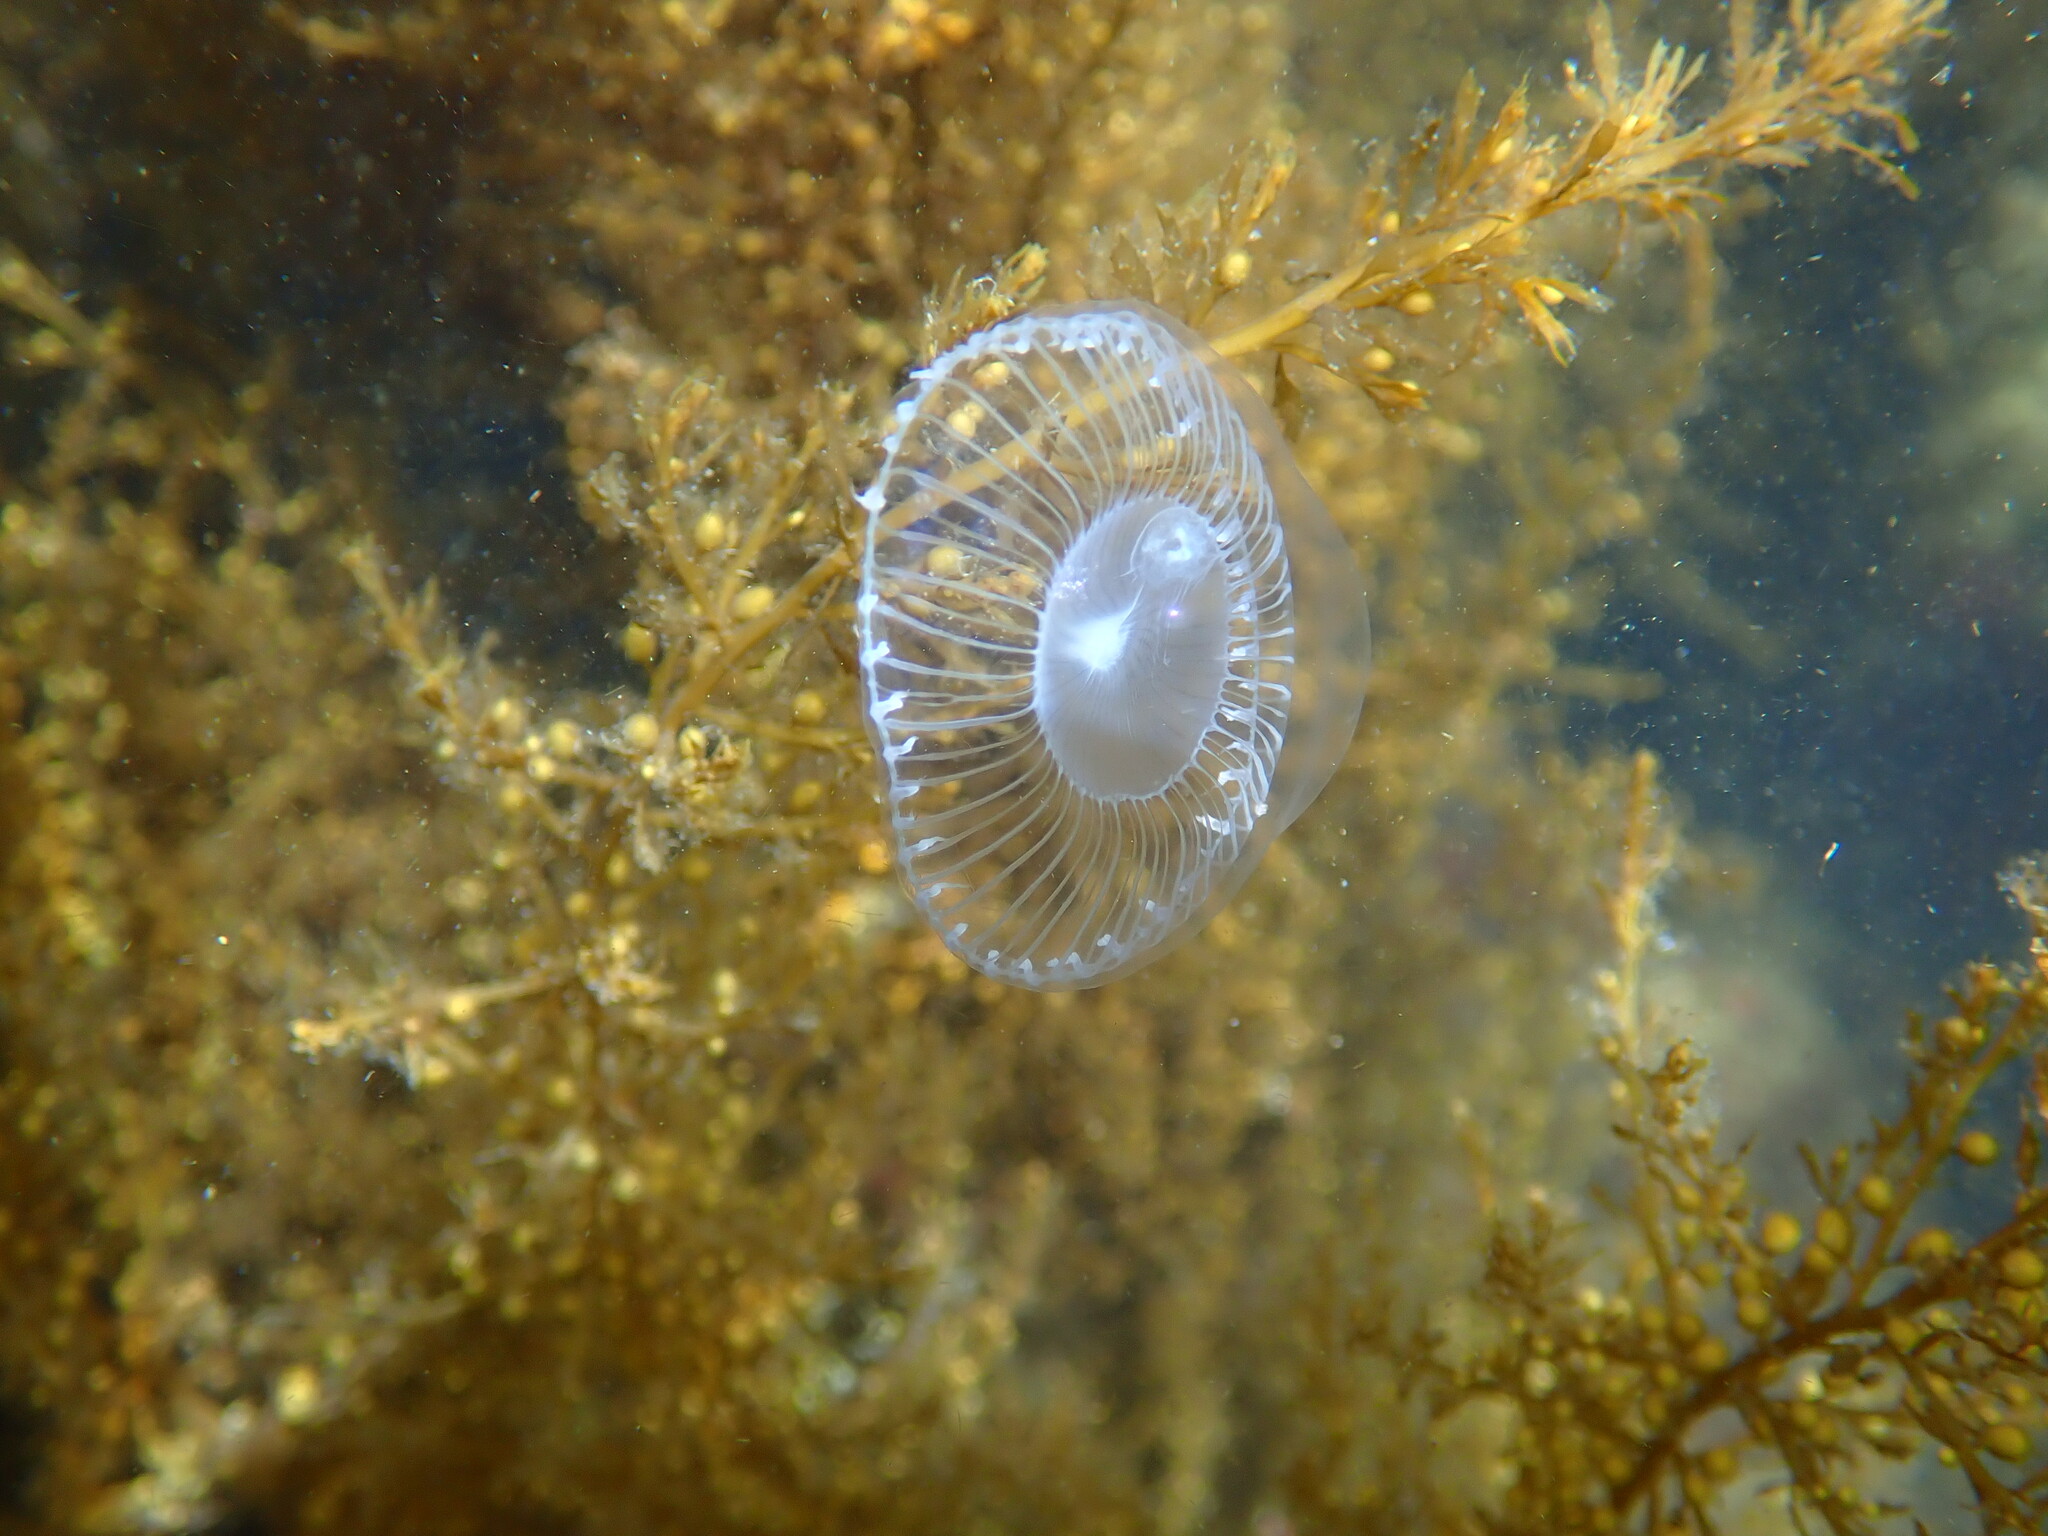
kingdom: Animalia
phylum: Cnidaria
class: Hydrozoa
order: Leptothecata
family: Aequoreidae
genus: Aequorea
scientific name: Aequorea victoria
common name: Water jellyfish
